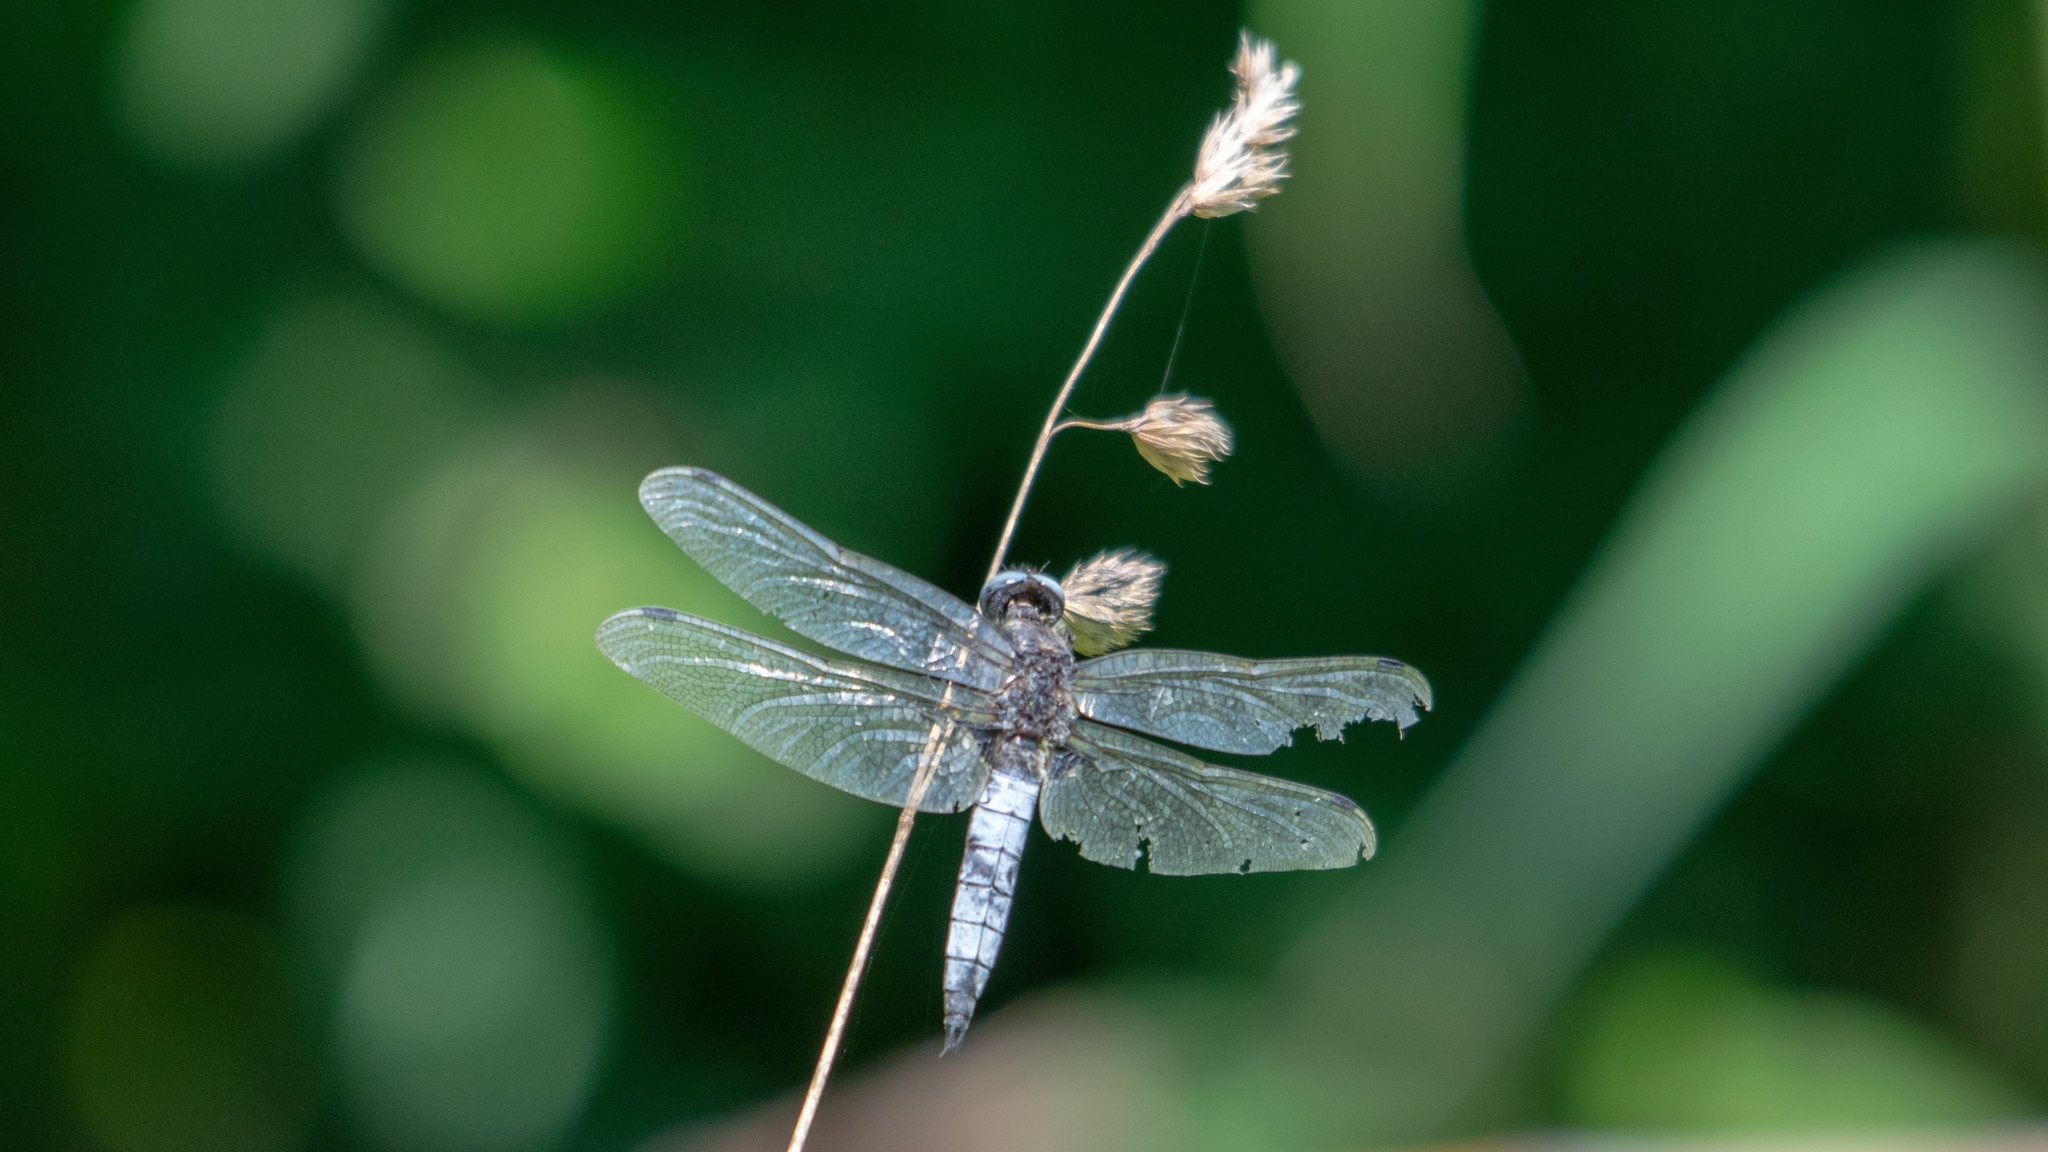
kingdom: Animalia
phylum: Arthropoda
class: Insecta
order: Odonata
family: Libellulidae
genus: Libellula
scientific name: Libellula fulva
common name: Blue chaser
